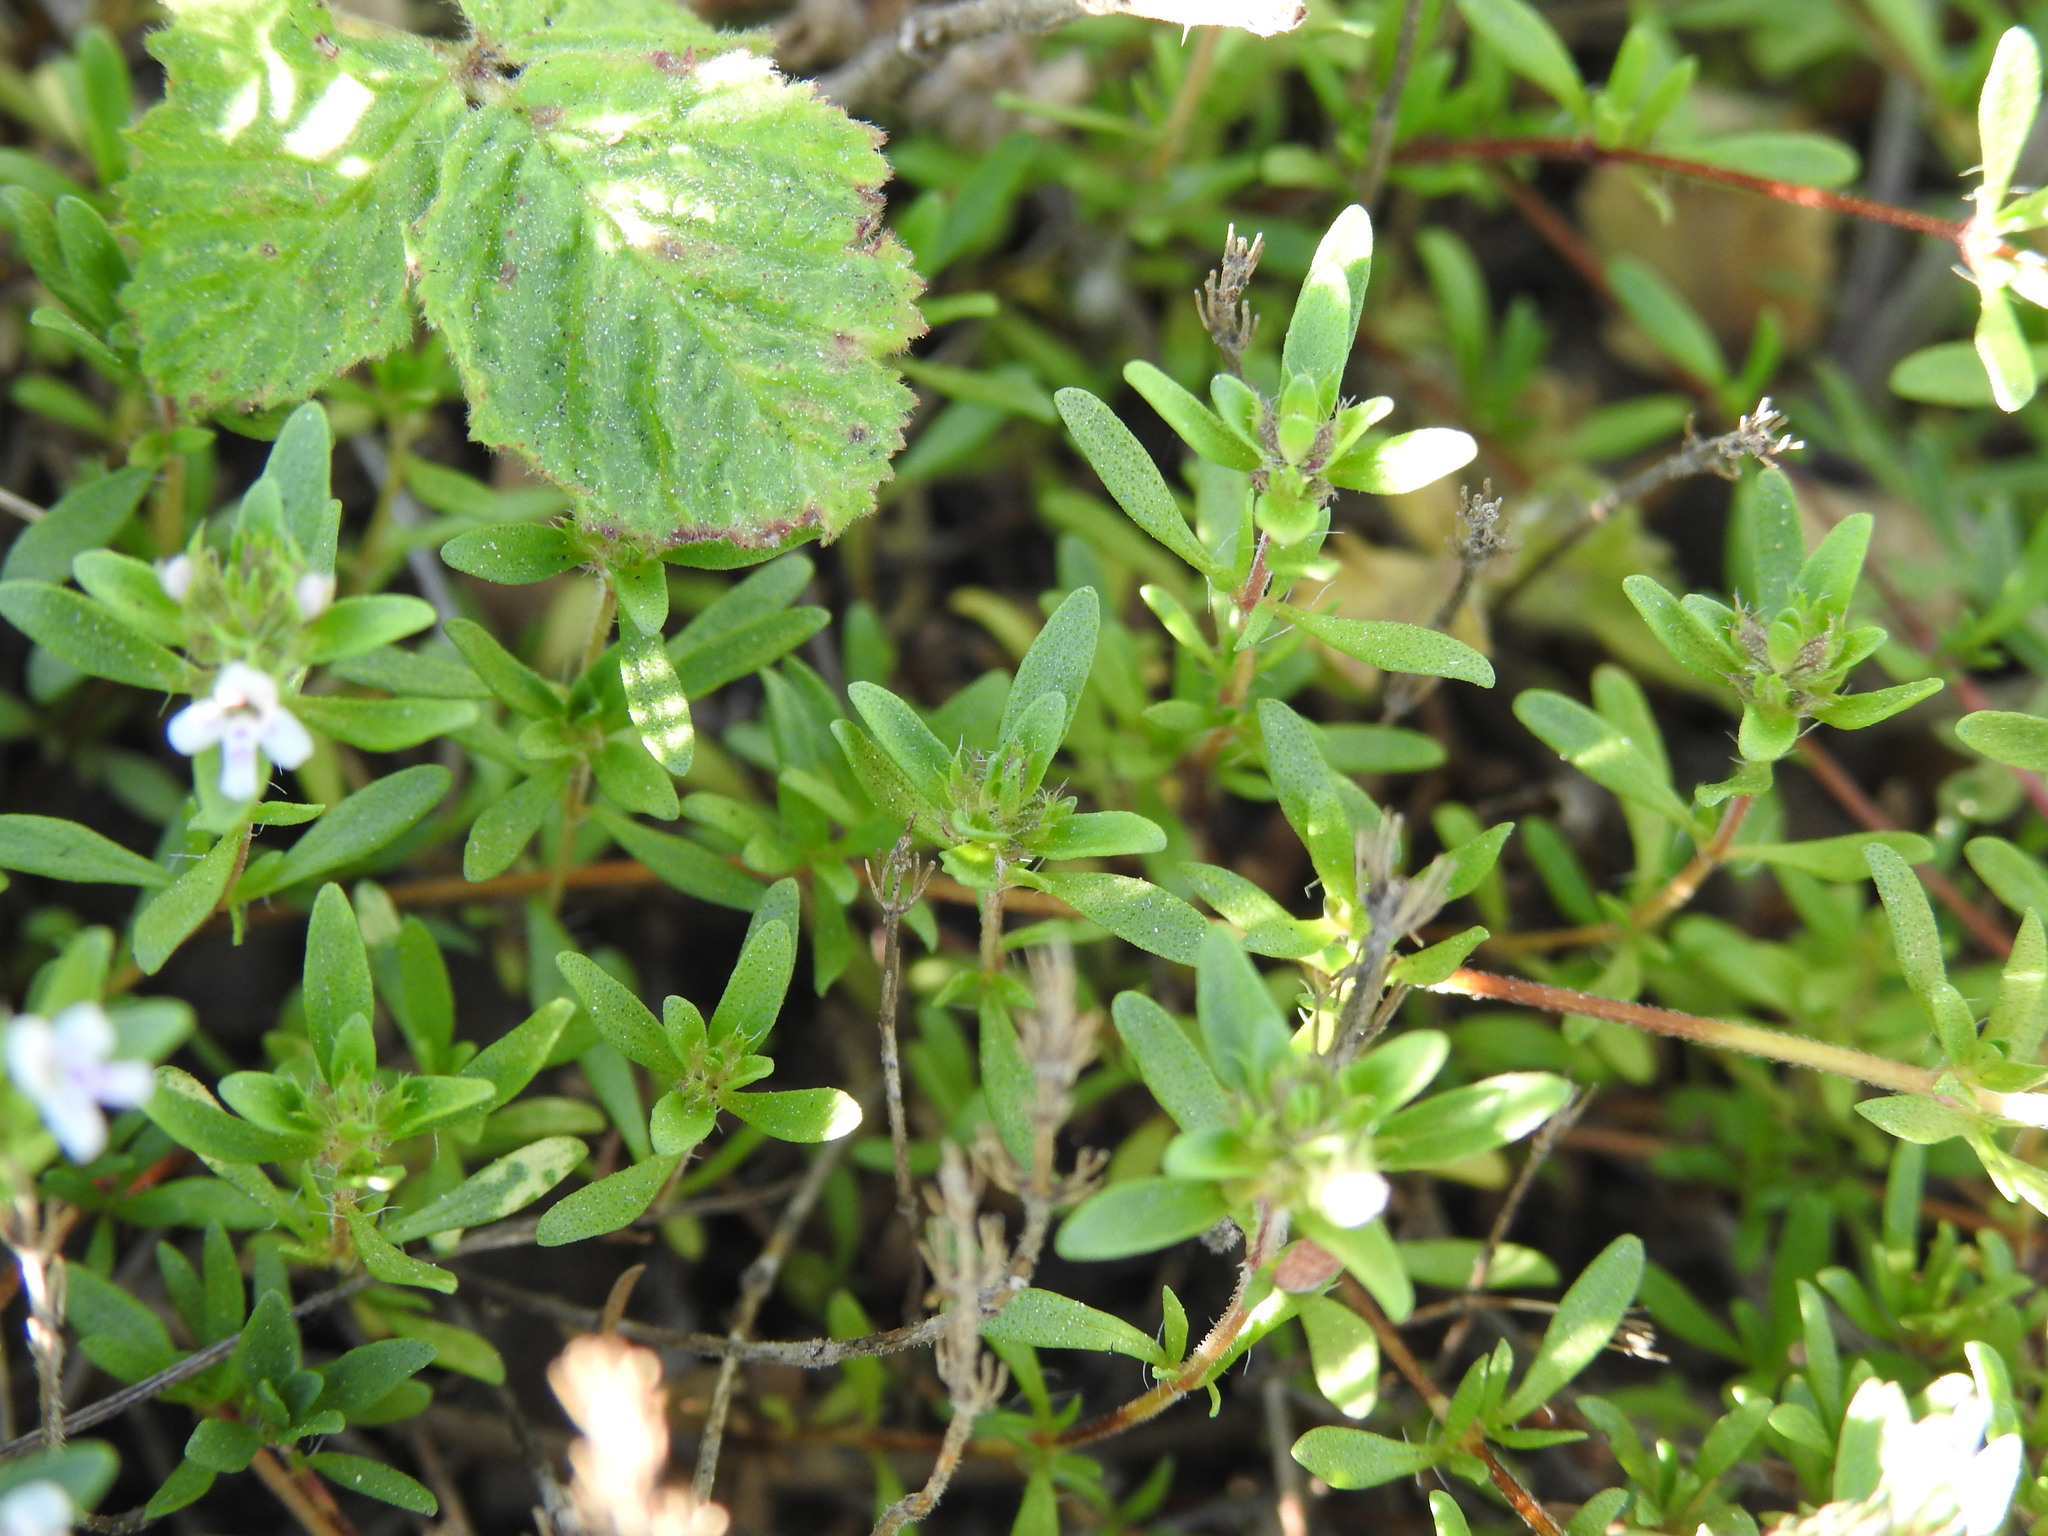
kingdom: Plantae
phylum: Tracheophyta
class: Magnoliopsida
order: Lamiales
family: Lamiaceae
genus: Thymus
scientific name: Thymus embergeri
